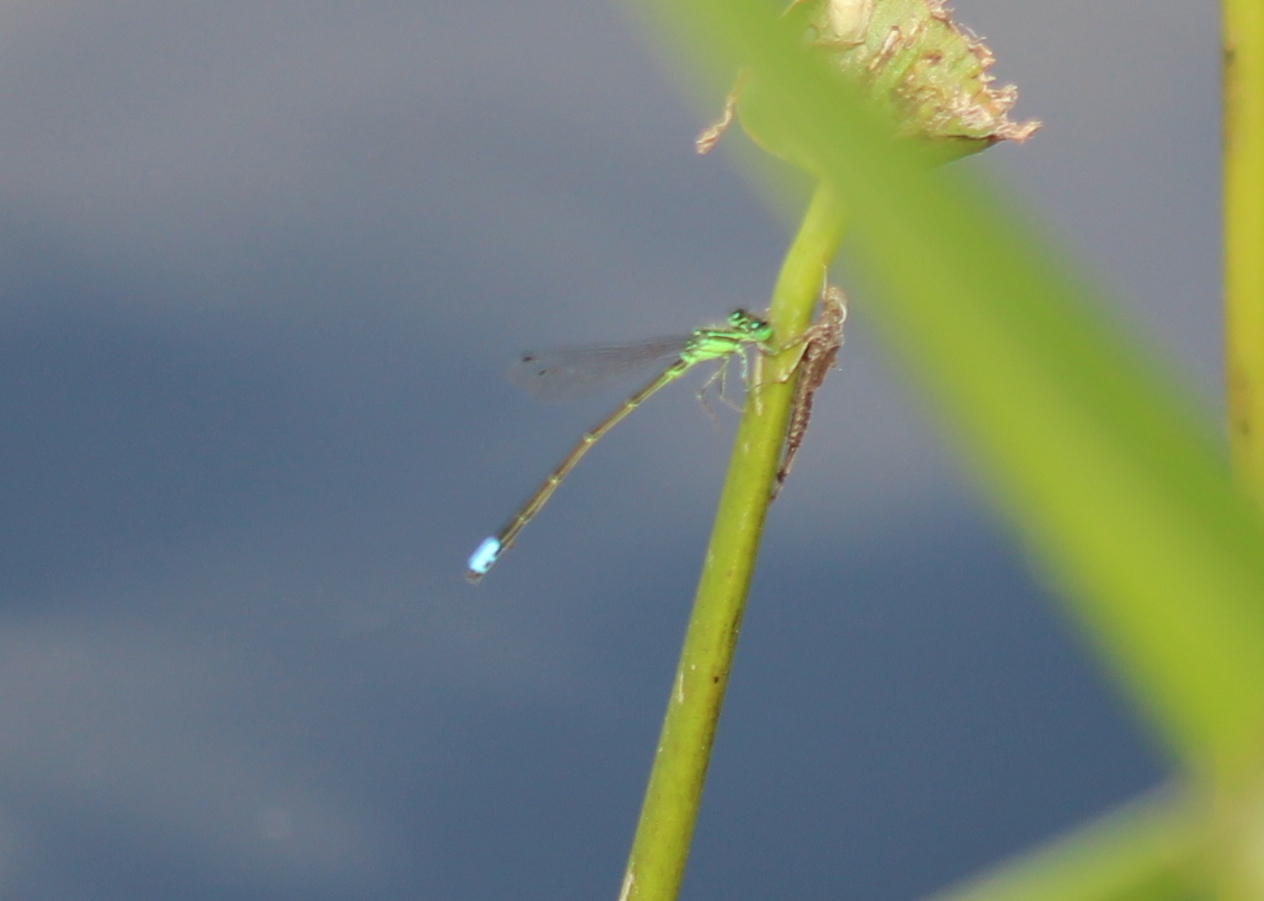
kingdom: Animalia
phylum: Arthropoda
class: Insecta
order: Odonata
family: Coenagrionidae
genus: Ischnura
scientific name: Ischnura verticalis
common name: Eastern forktail
